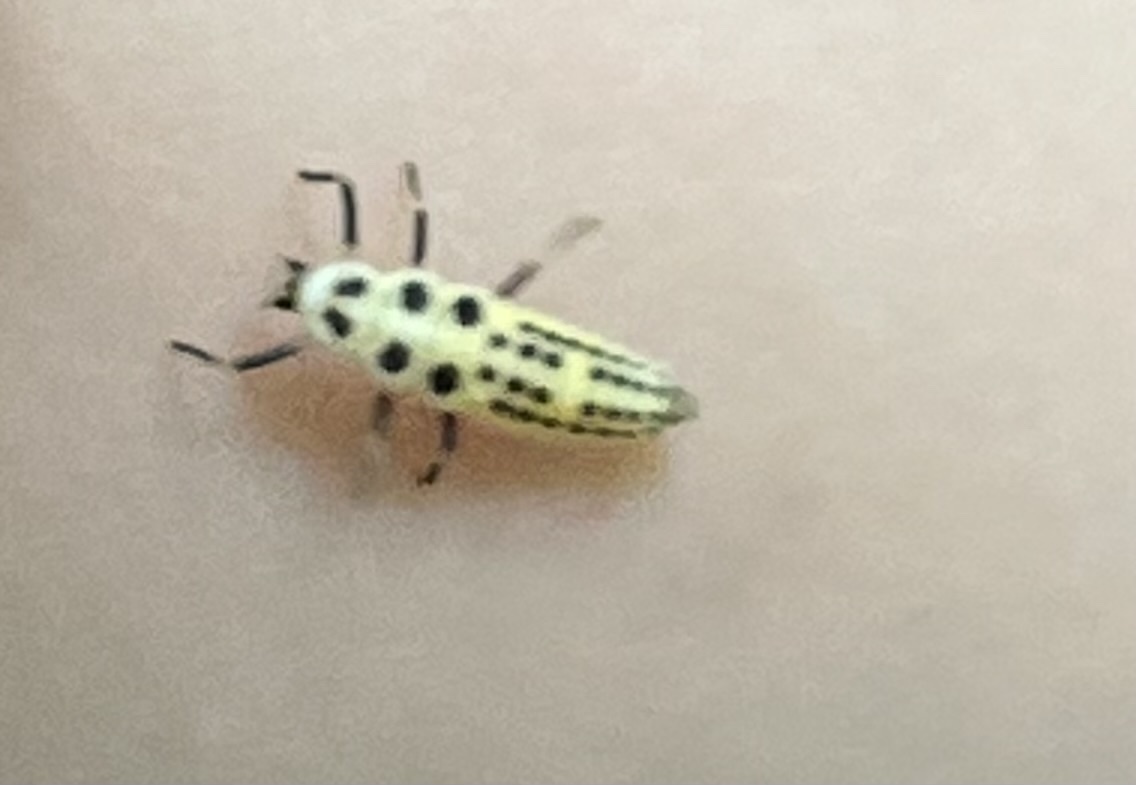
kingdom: Animalia
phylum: Arthropoda
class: Insecta
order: Coleoptera
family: Coccinellidae
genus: Calvia
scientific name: Calvia decemguttata
